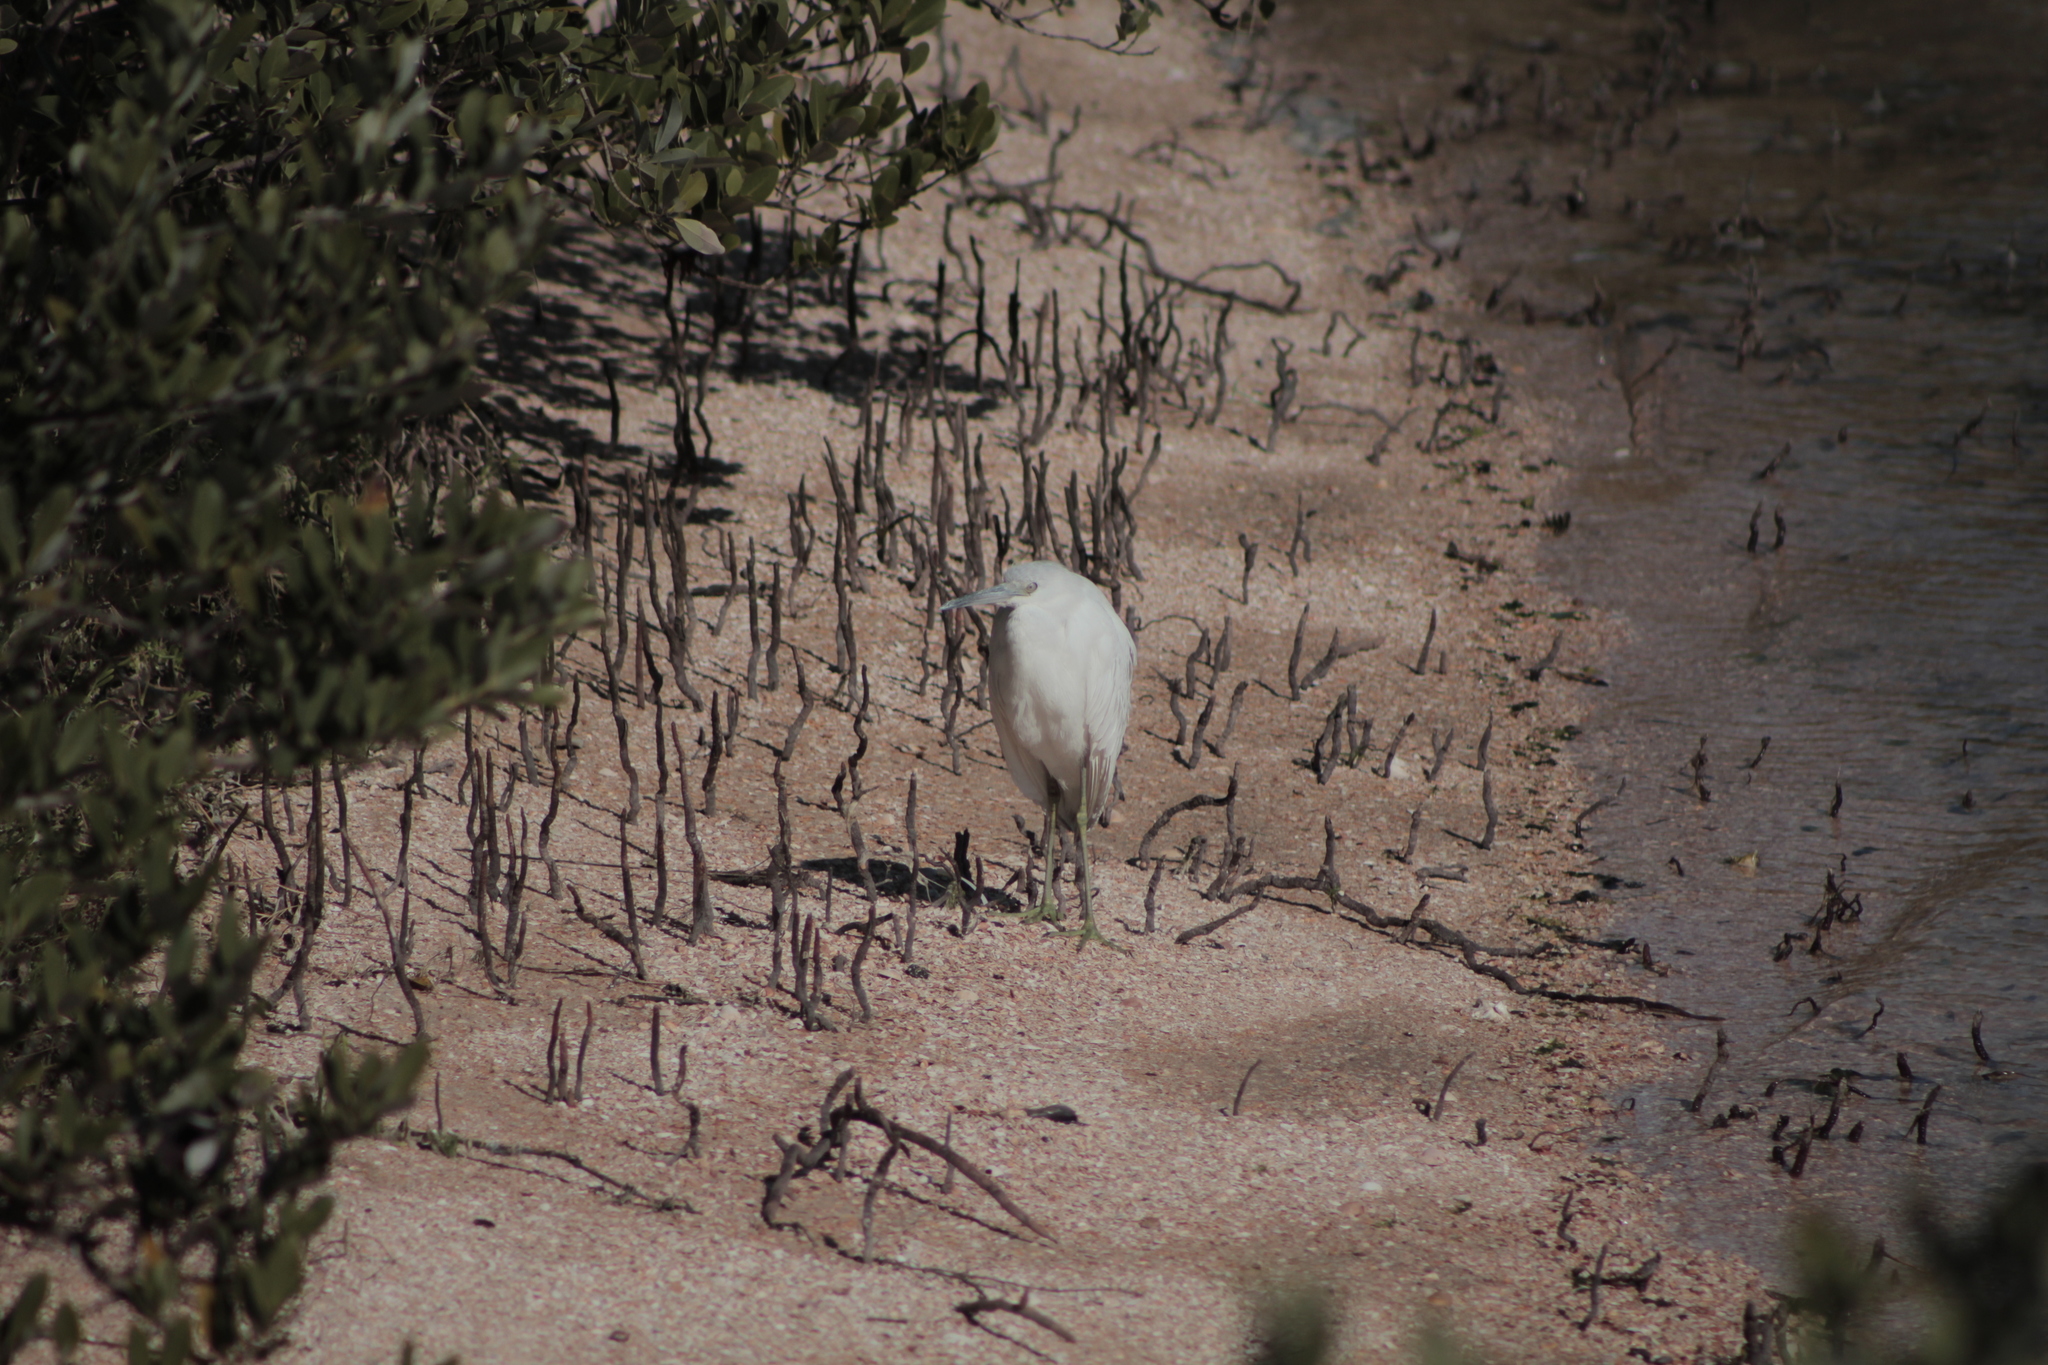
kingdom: Animalia
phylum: Chordata
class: Aves
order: Pelecaniformes
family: Ardeidae
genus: Egretta
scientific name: Egretta caerulea
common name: Little blue heron
